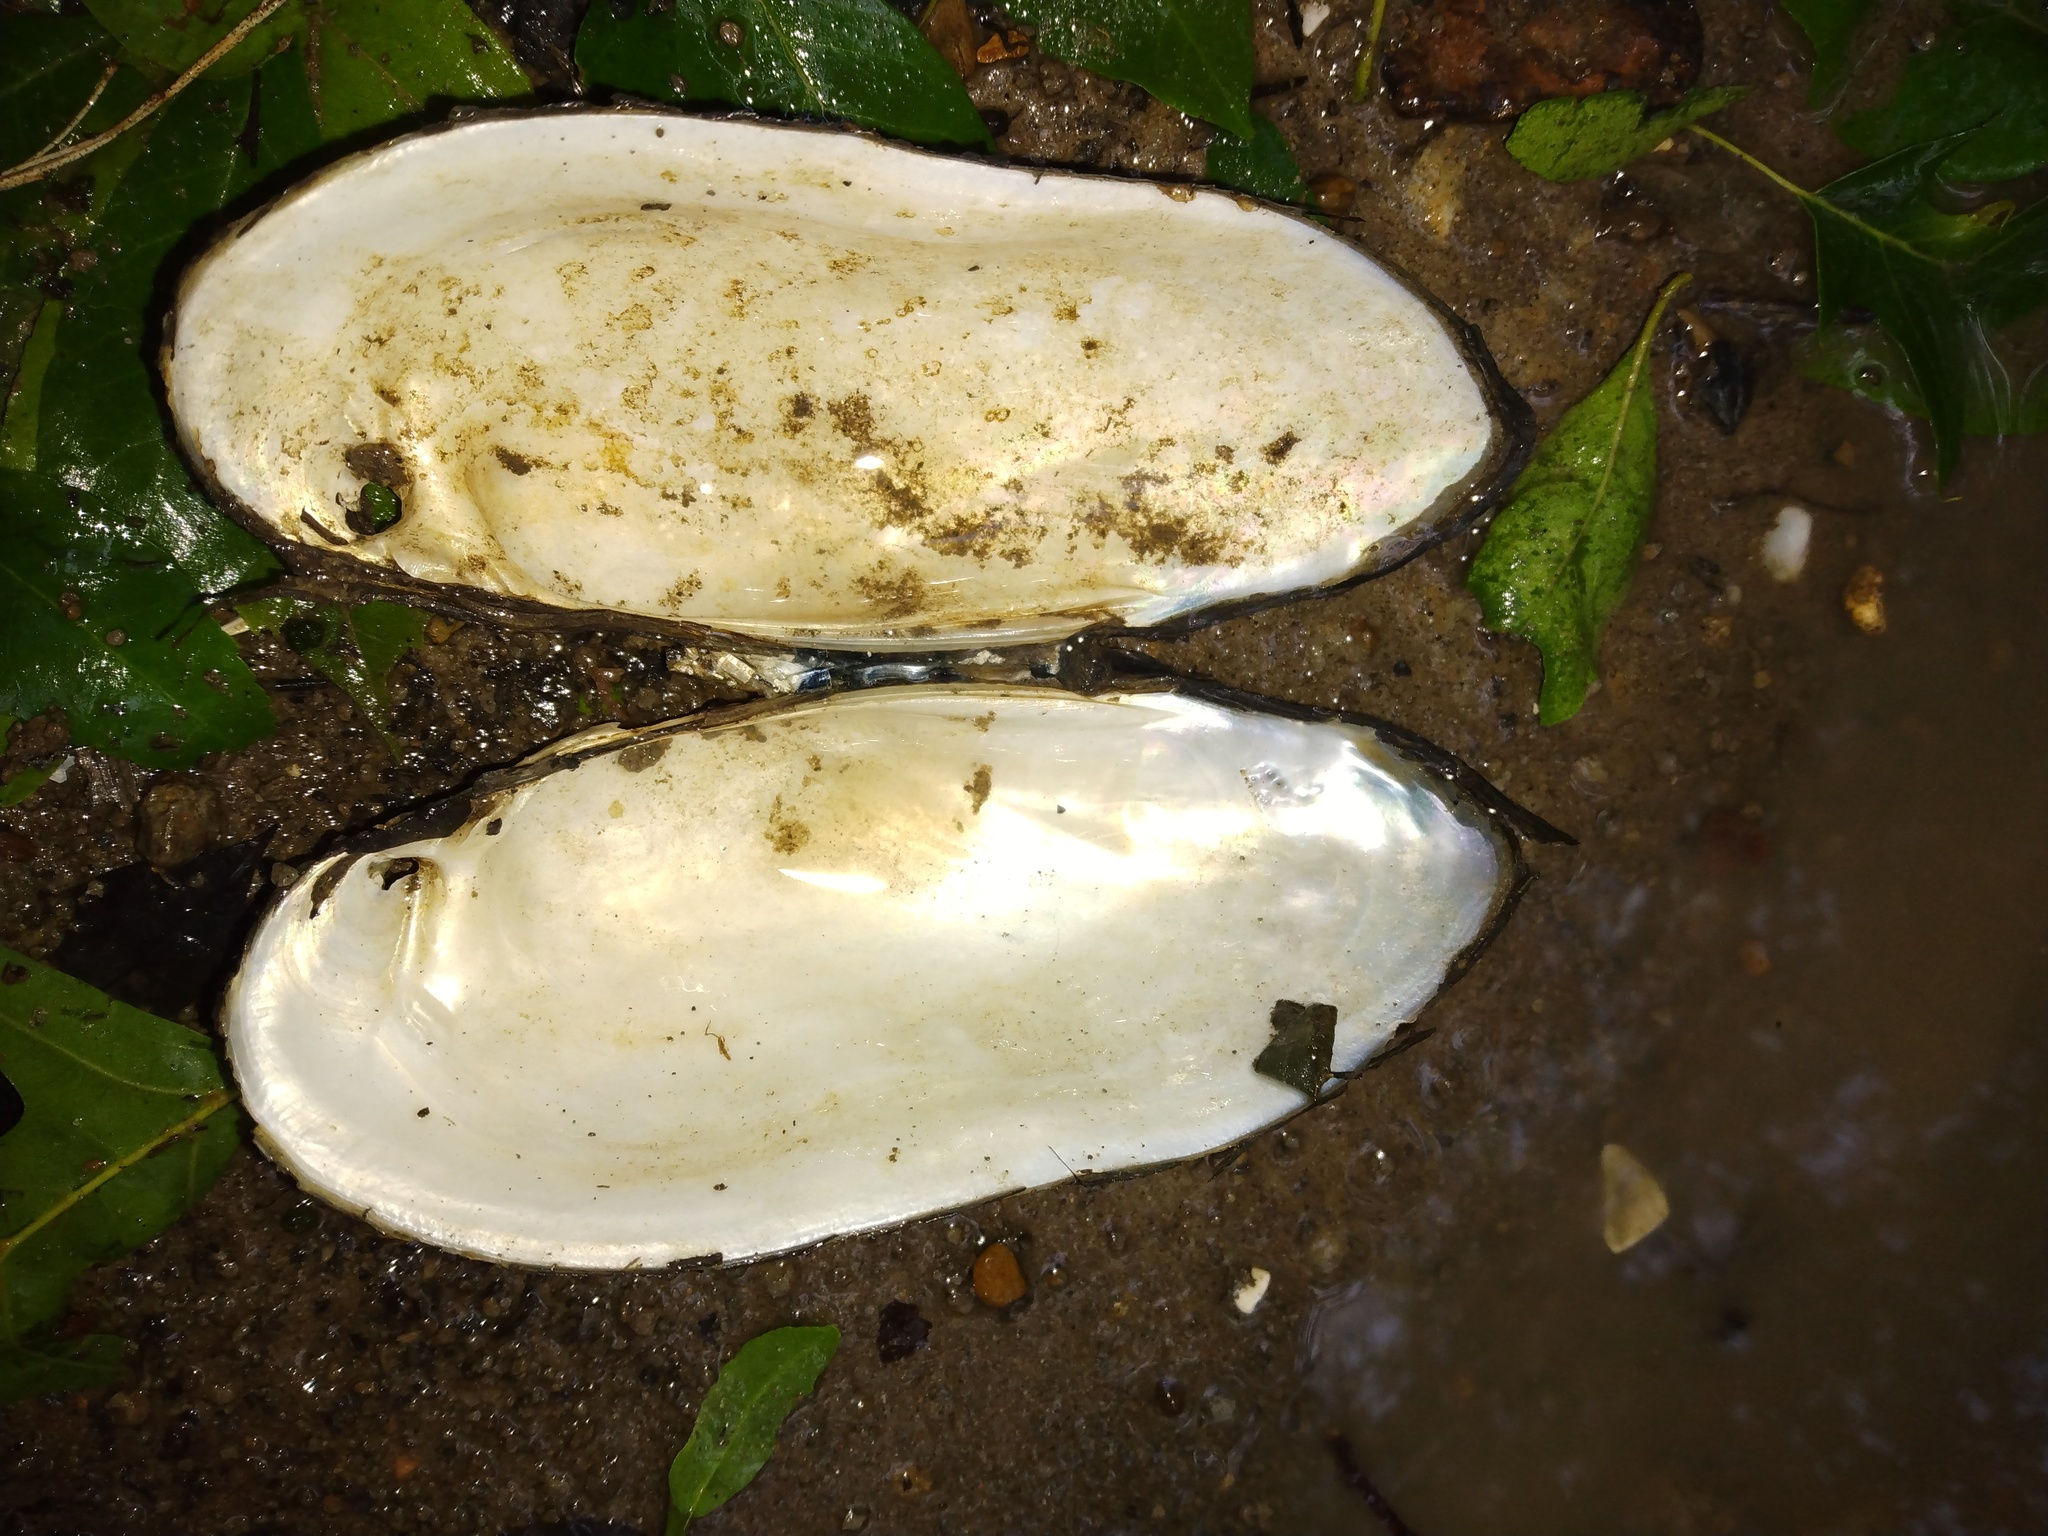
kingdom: Animalia
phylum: Mollusca
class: Bivalvia
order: Unionida
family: Unionidae
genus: Lampsilis
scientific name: Lampsilis teres
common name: Yellow sandshell
